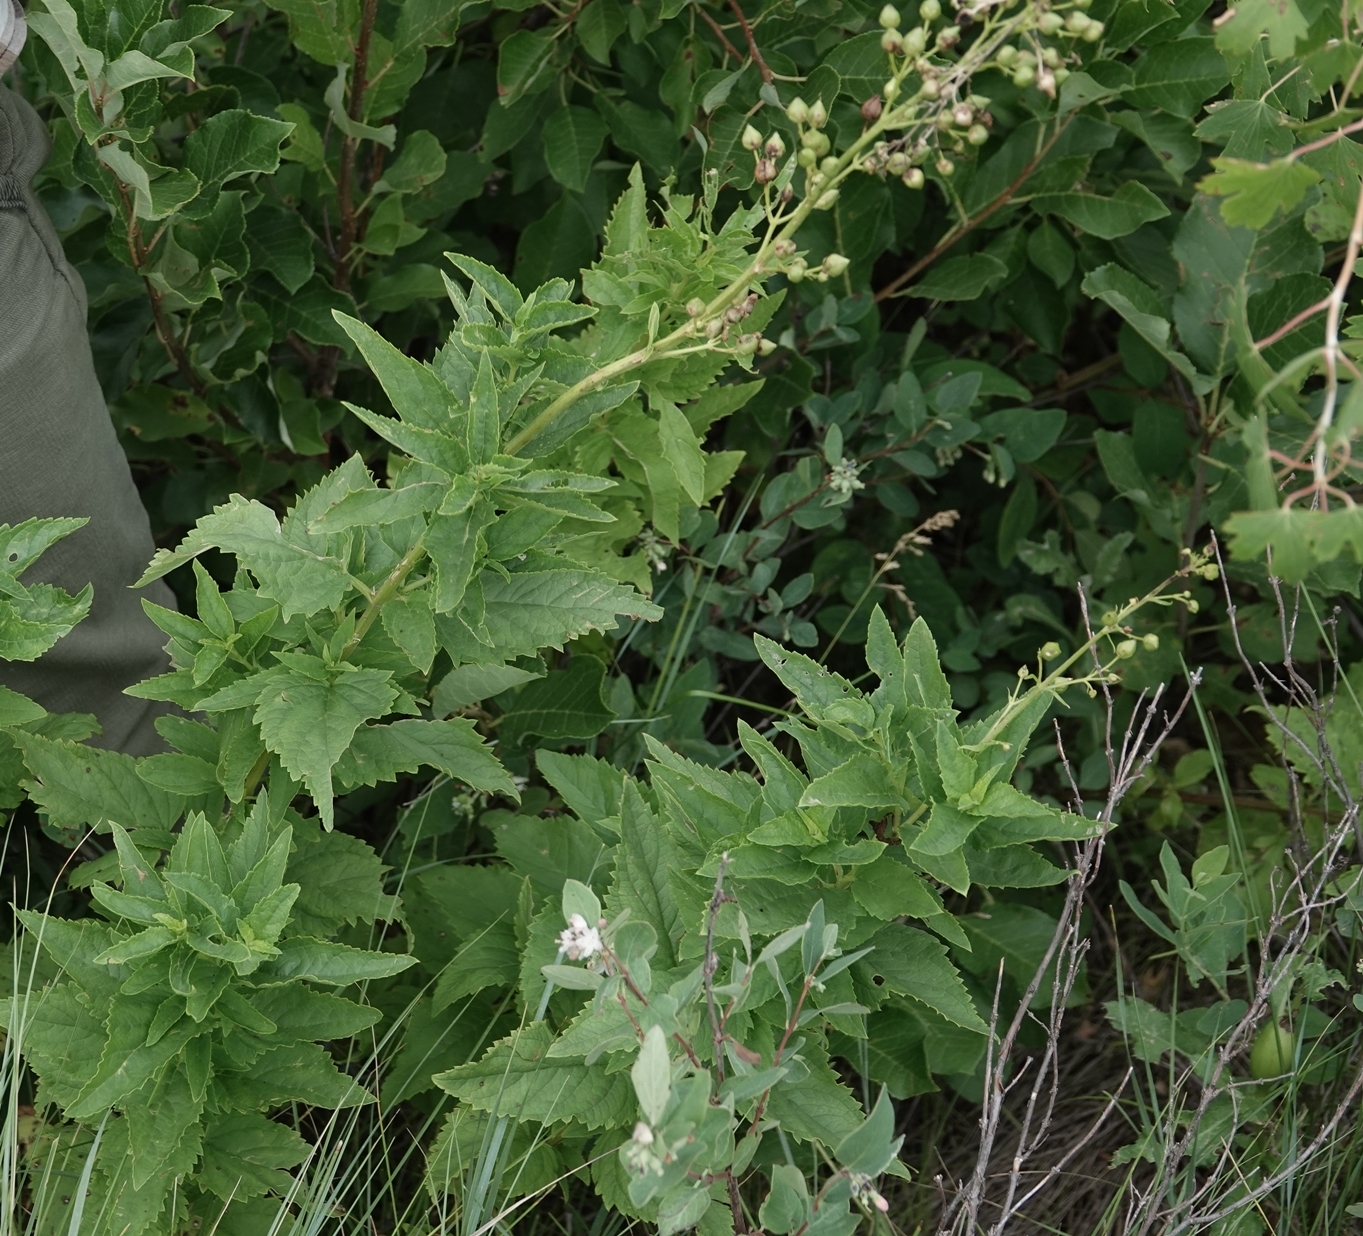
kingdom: Plantae
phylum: Tracheophyta
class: Magnoliopsida
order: Lamiales
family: Scrophulariaceae
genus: Scrophularia
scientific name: Scrophularia lanceolata
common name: American figwort
